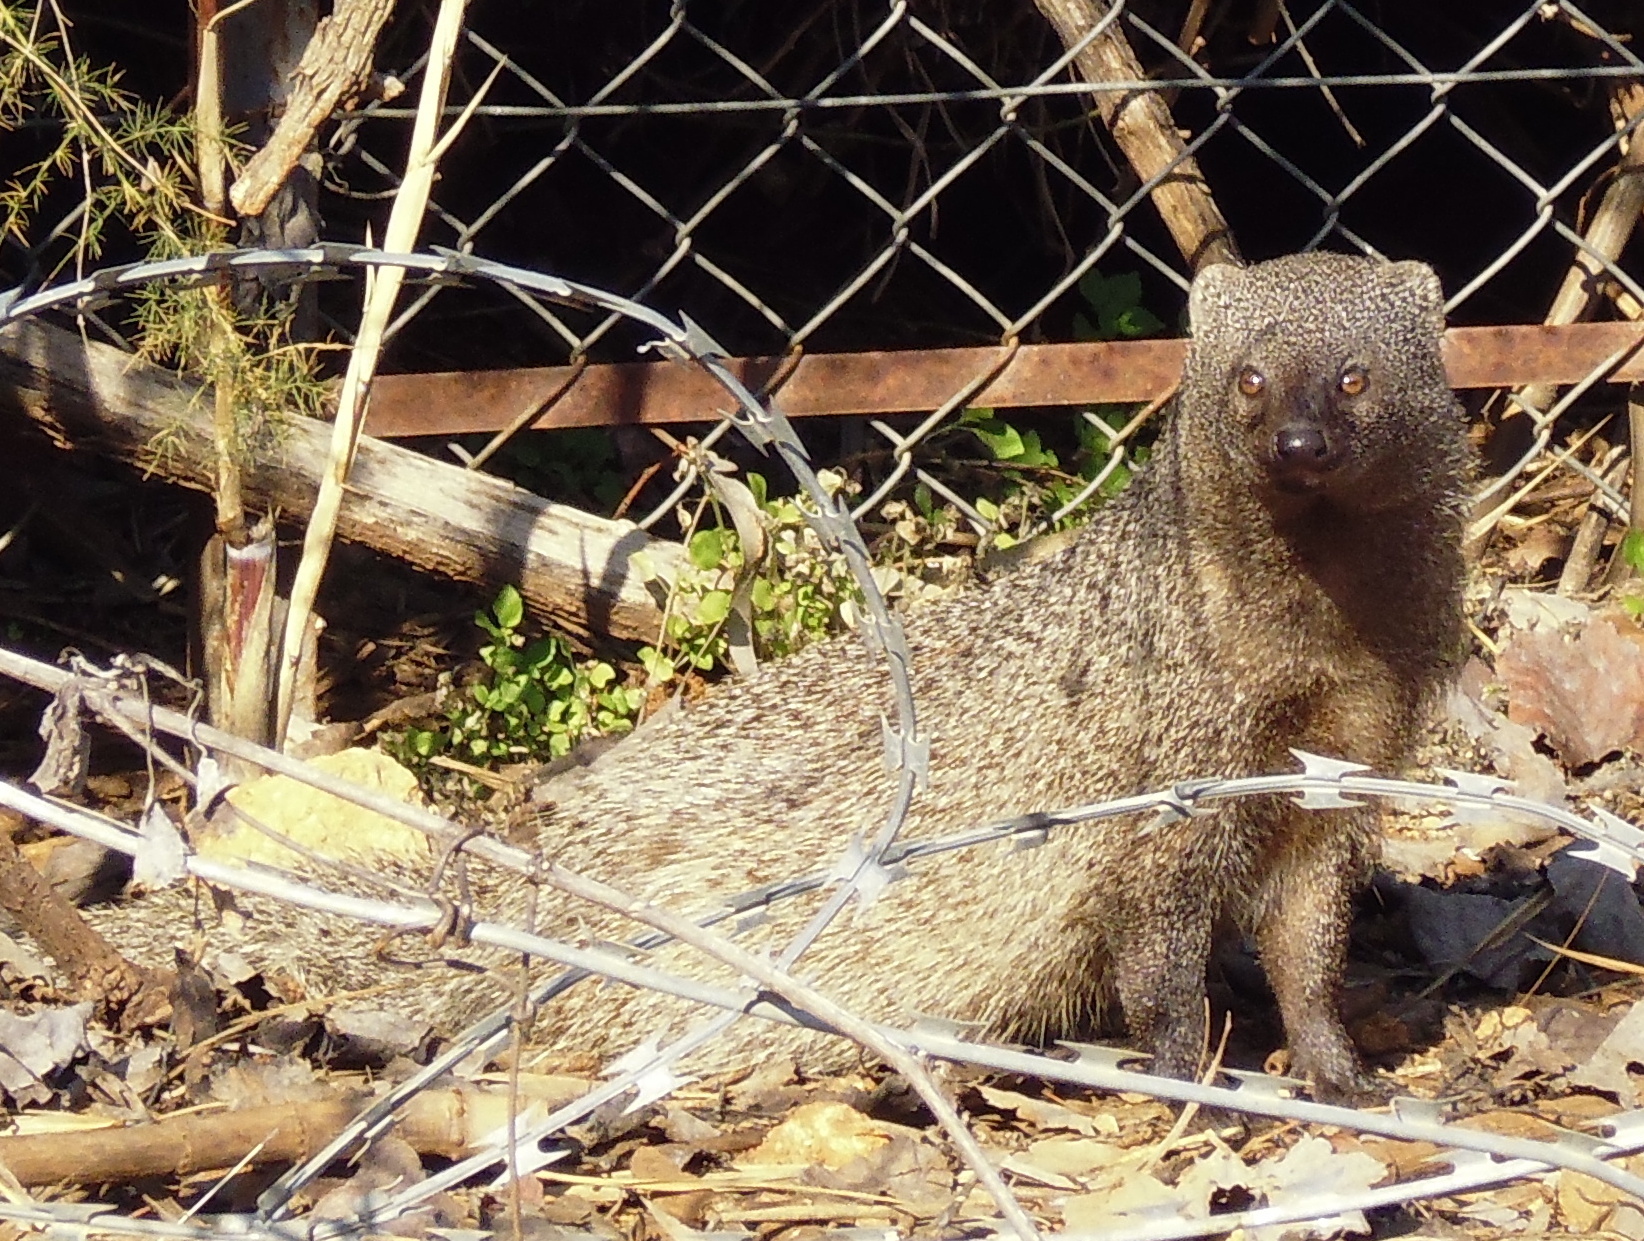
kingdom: Animalia
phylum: Chordata
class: Mammalia
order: Carnivora
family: Herpestidae
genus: Herpestes
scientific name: Herpestes ichneumon
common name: Egyptian mongoose
